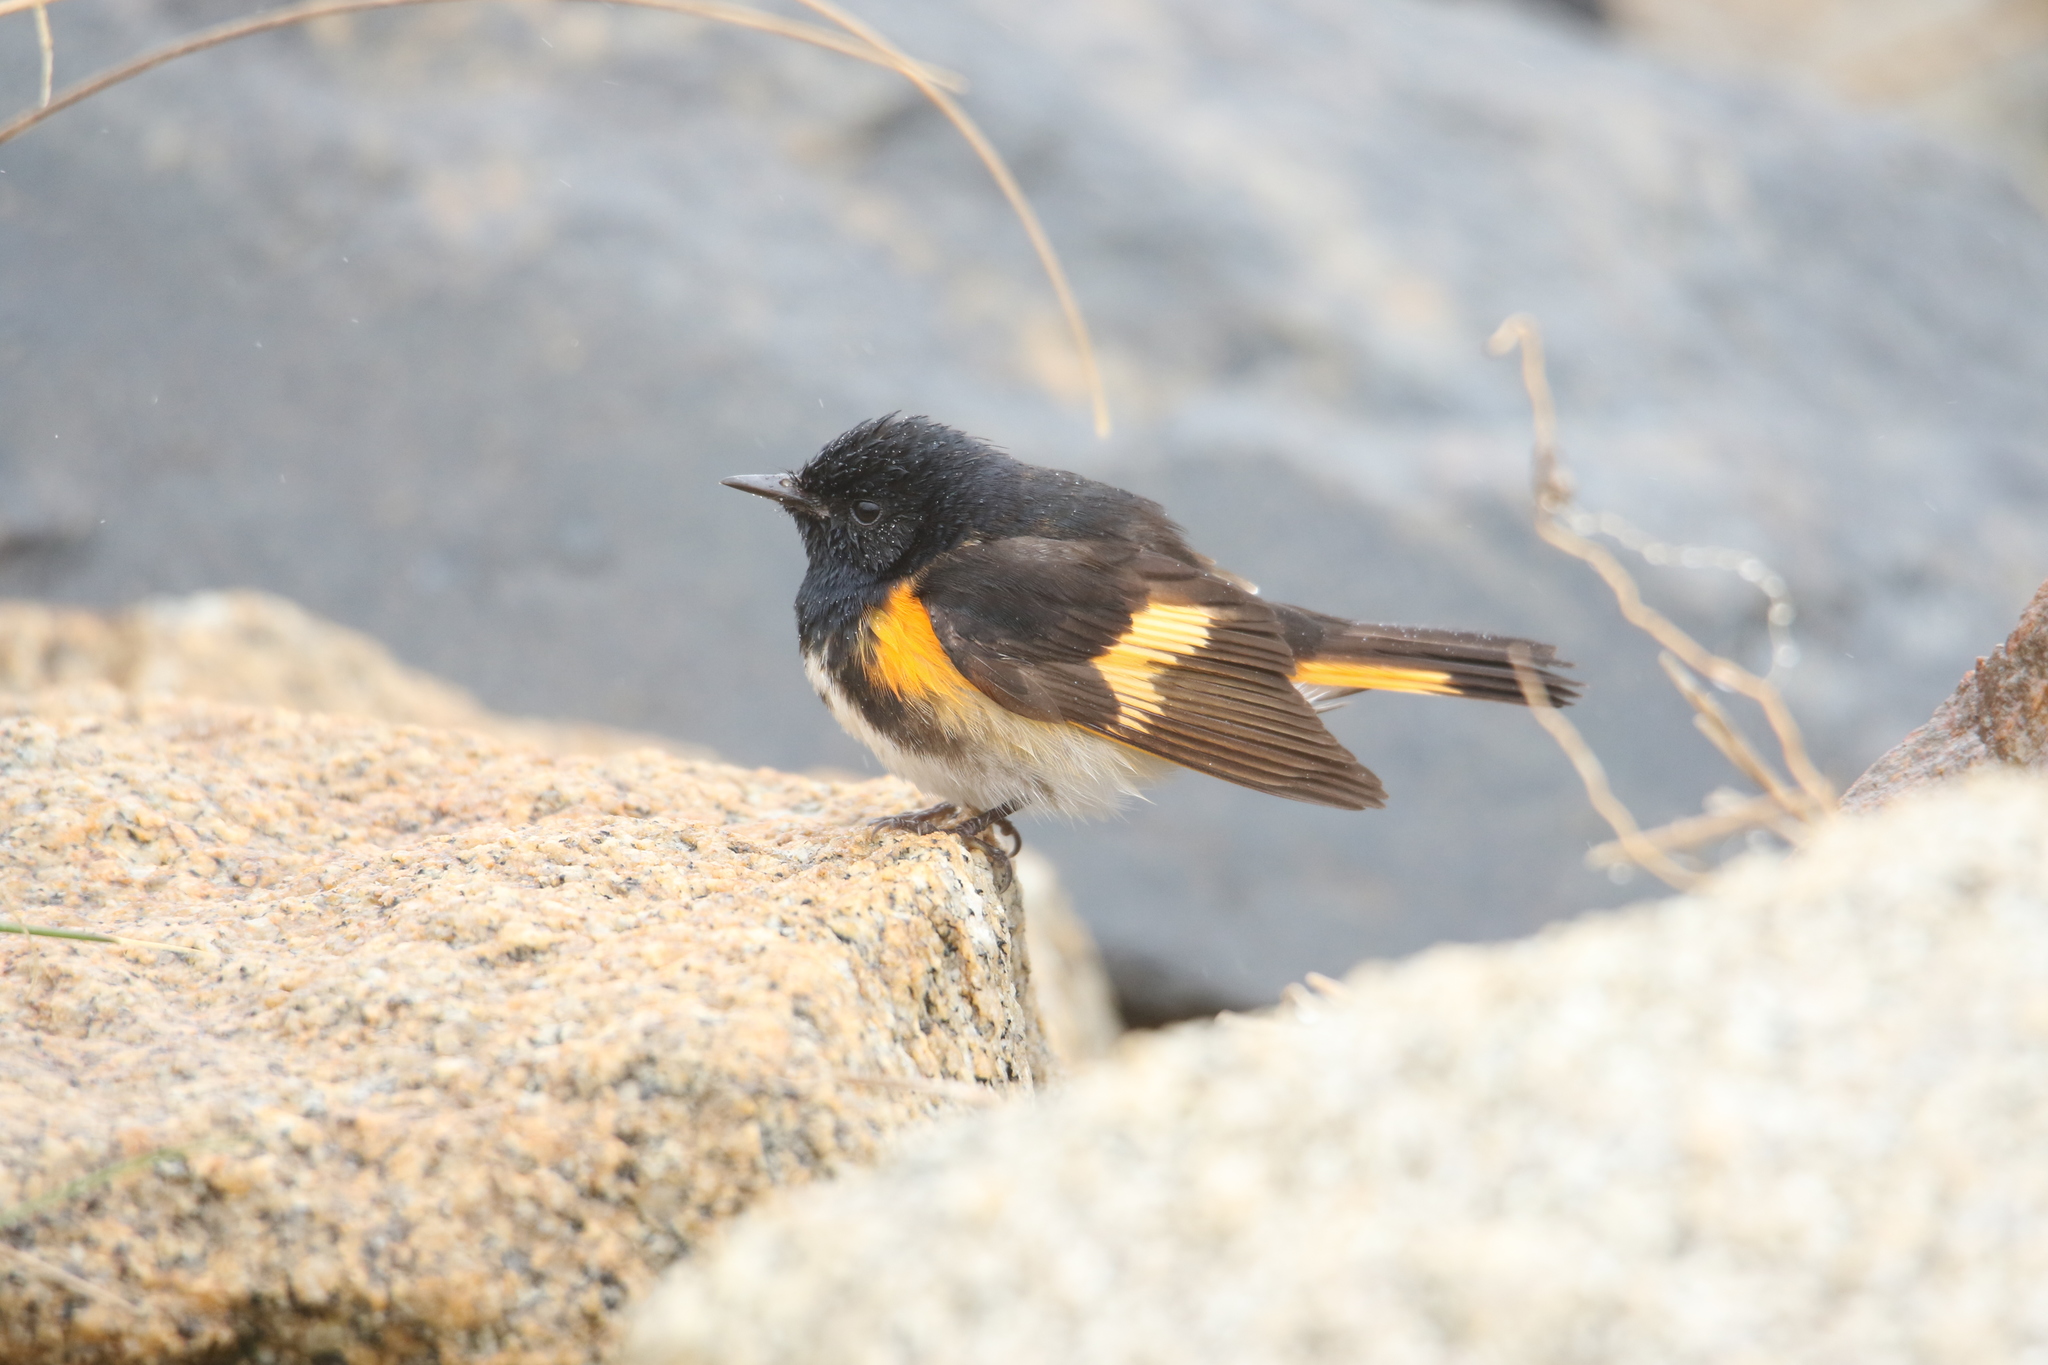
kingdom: Animalia
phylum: Chordata
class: Aves
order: Passeriformes
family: Parulidae
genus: Setophaga
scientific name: Setophaga ruticilla
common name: American redstart
